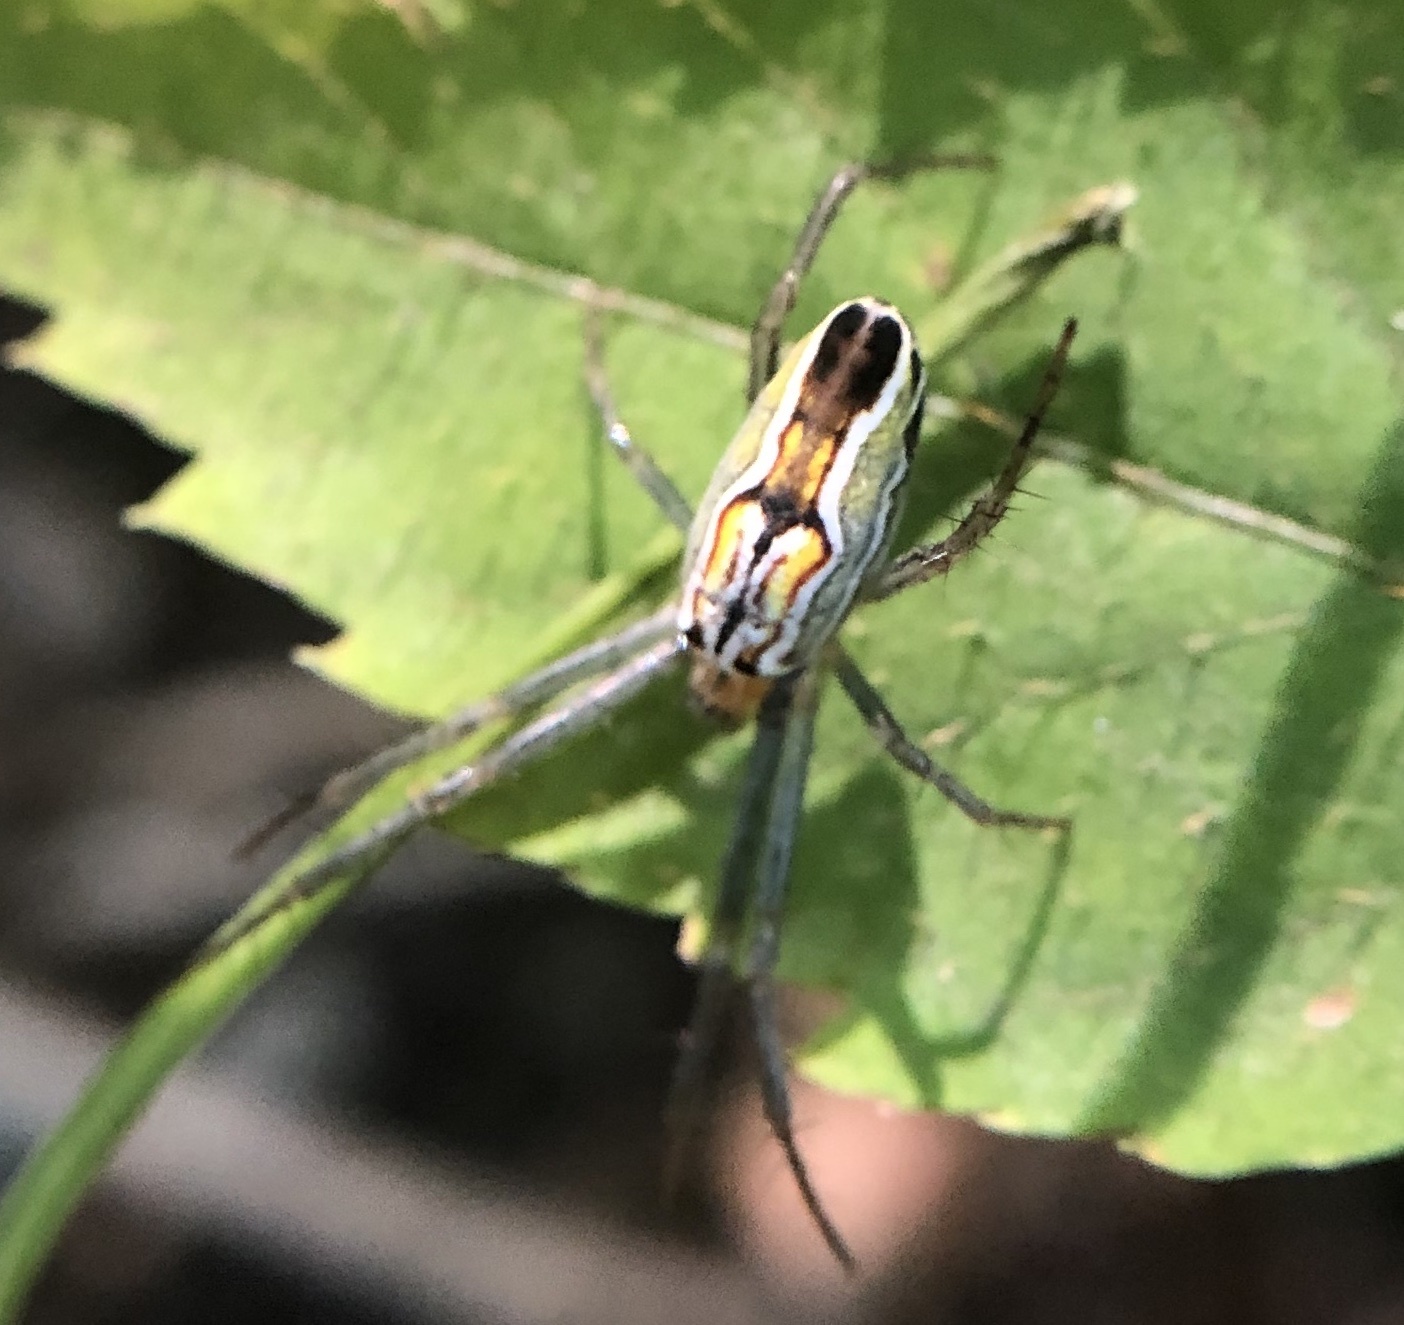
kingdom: Animalia
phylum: Arthropoda
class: Arachnida
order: Araneae
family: Araneidae
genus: Mecynogea
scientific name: Mecynogea lemniscata
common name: Orb weavers
